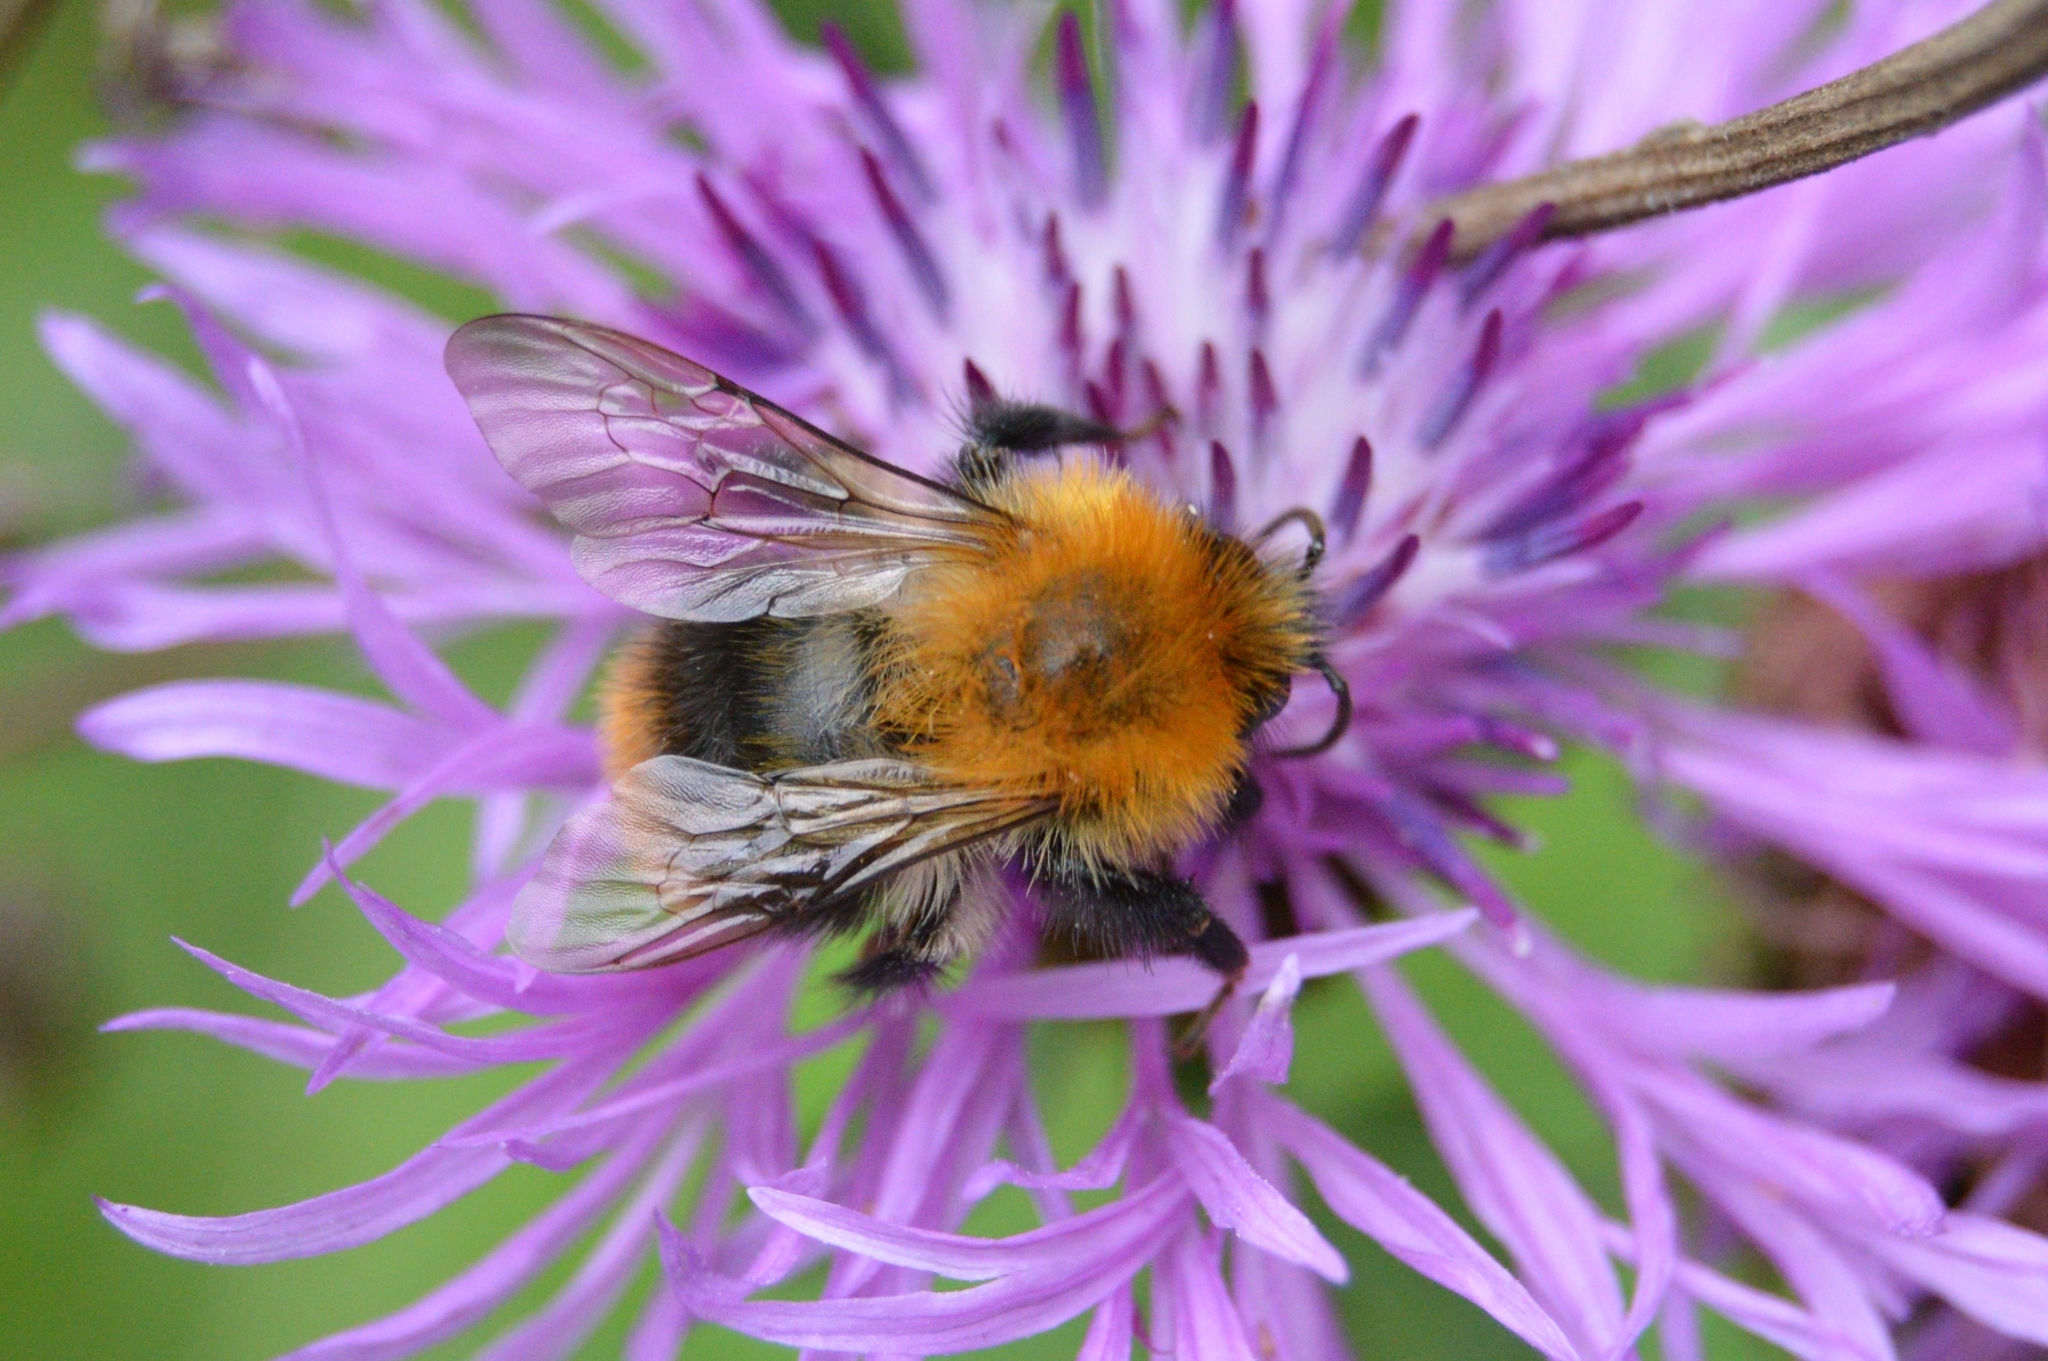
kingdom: Animalia
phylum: Arthropoda
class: Insecta
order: Hymenoptera
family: Apidae
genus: Bombus
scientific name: Bombus pascuorum
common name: Common carder bee
